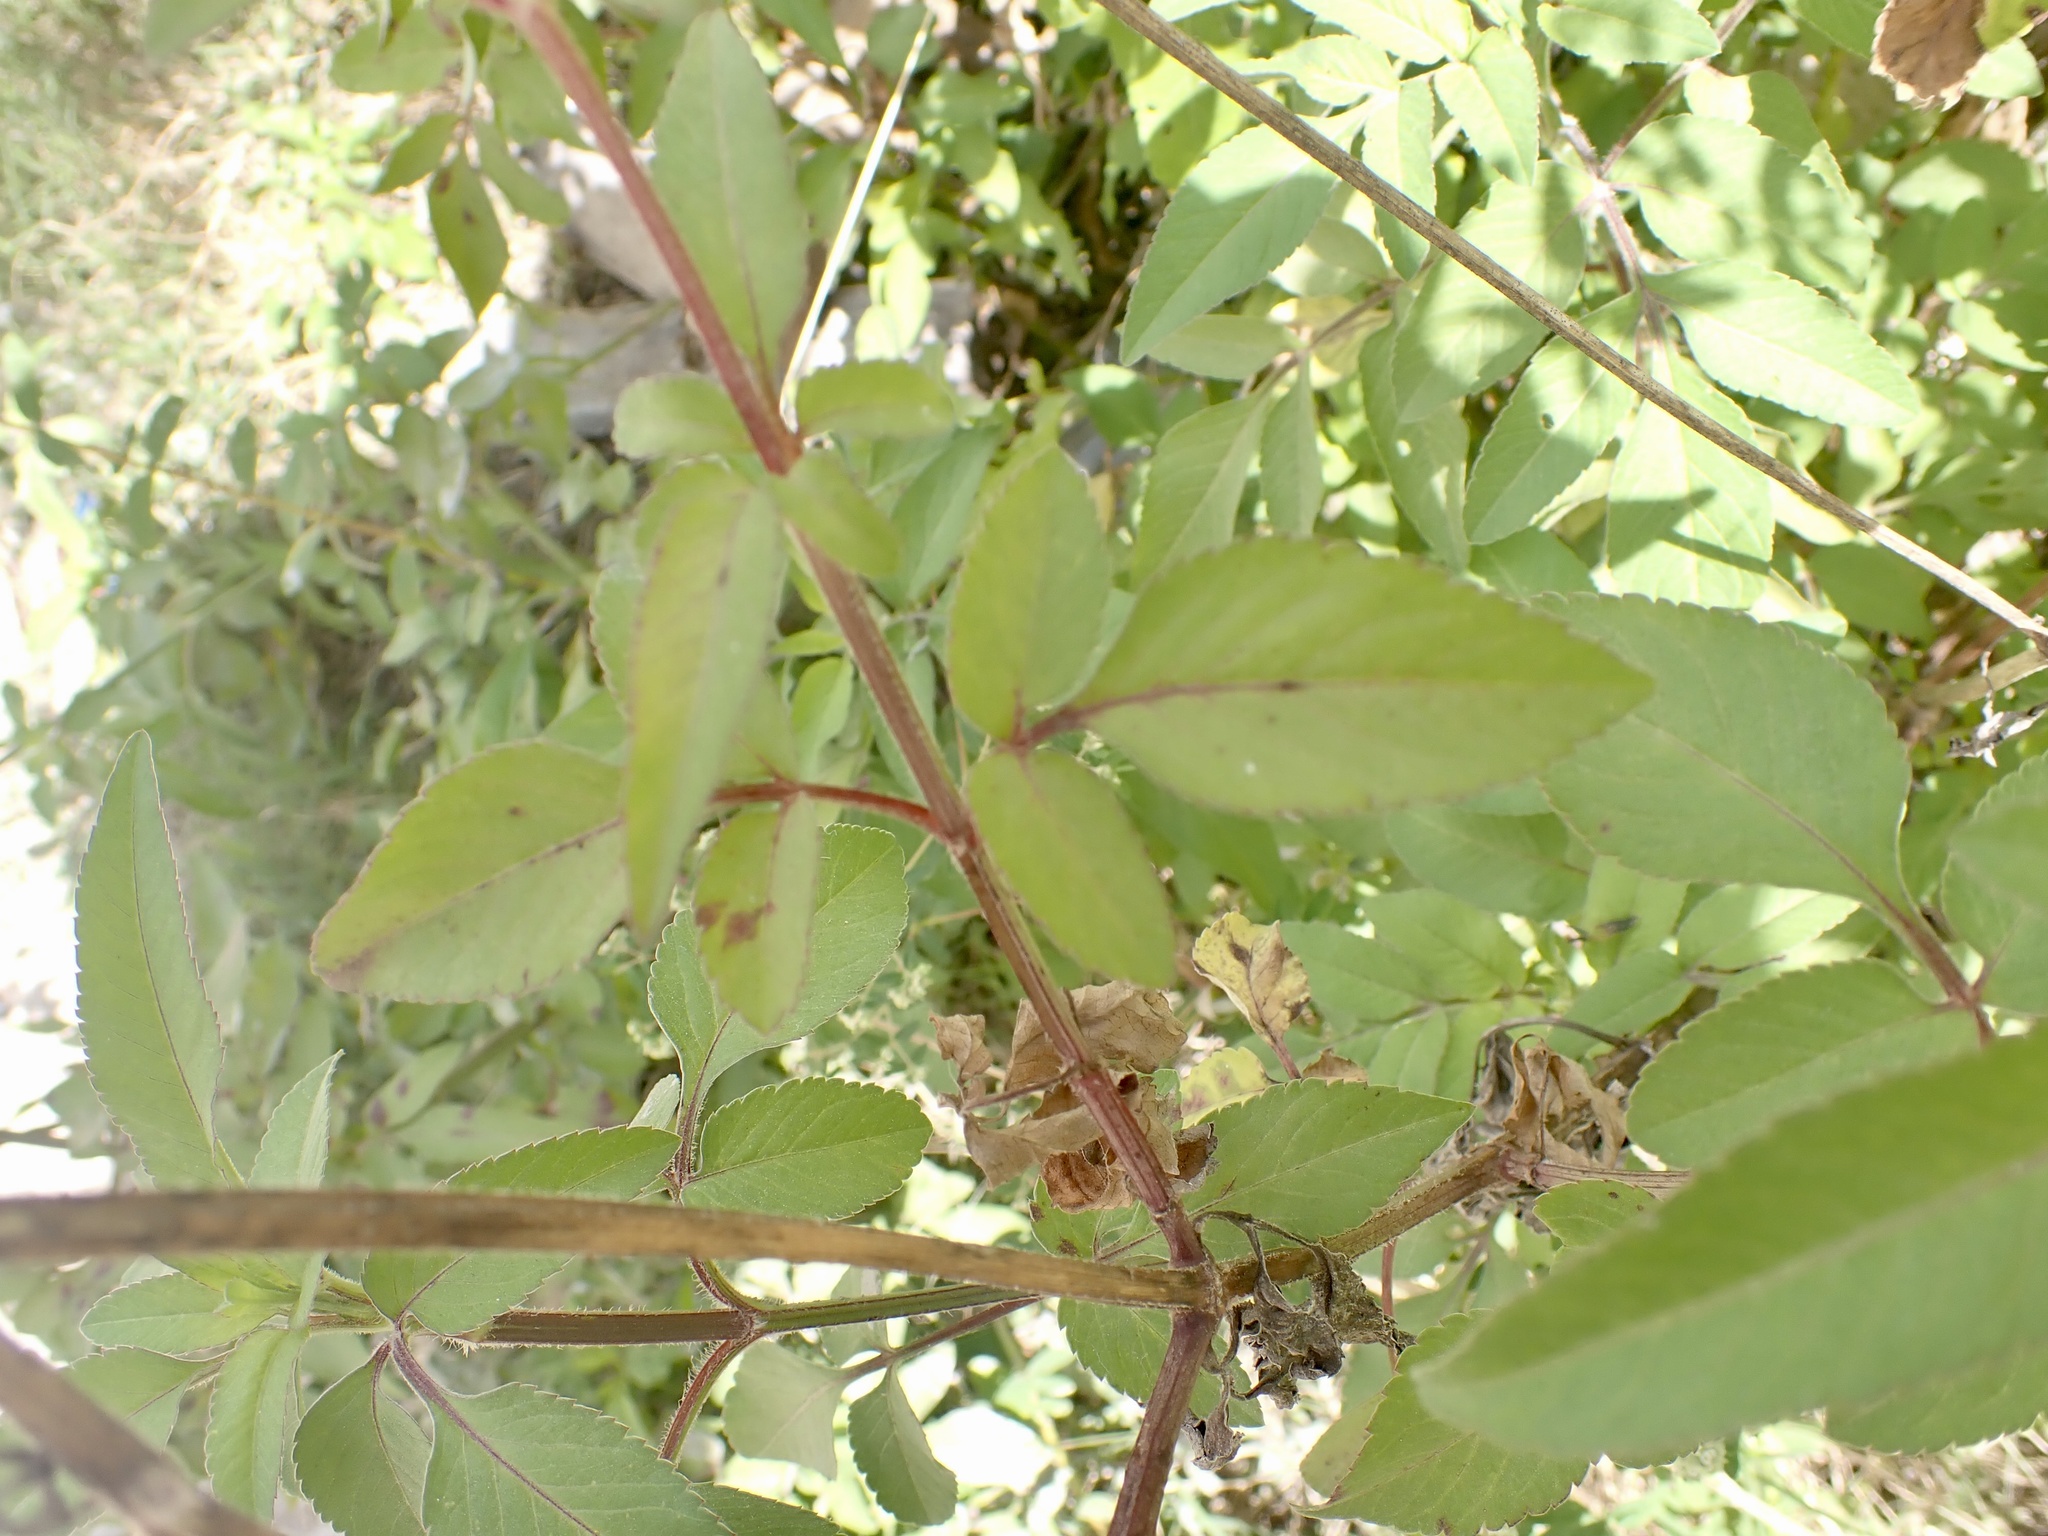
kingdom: Plantae
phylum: Tracheophyta
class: Magnoliopsida
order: Asterales
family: Asteraceae
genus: Bidens
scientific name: Bidens alba
